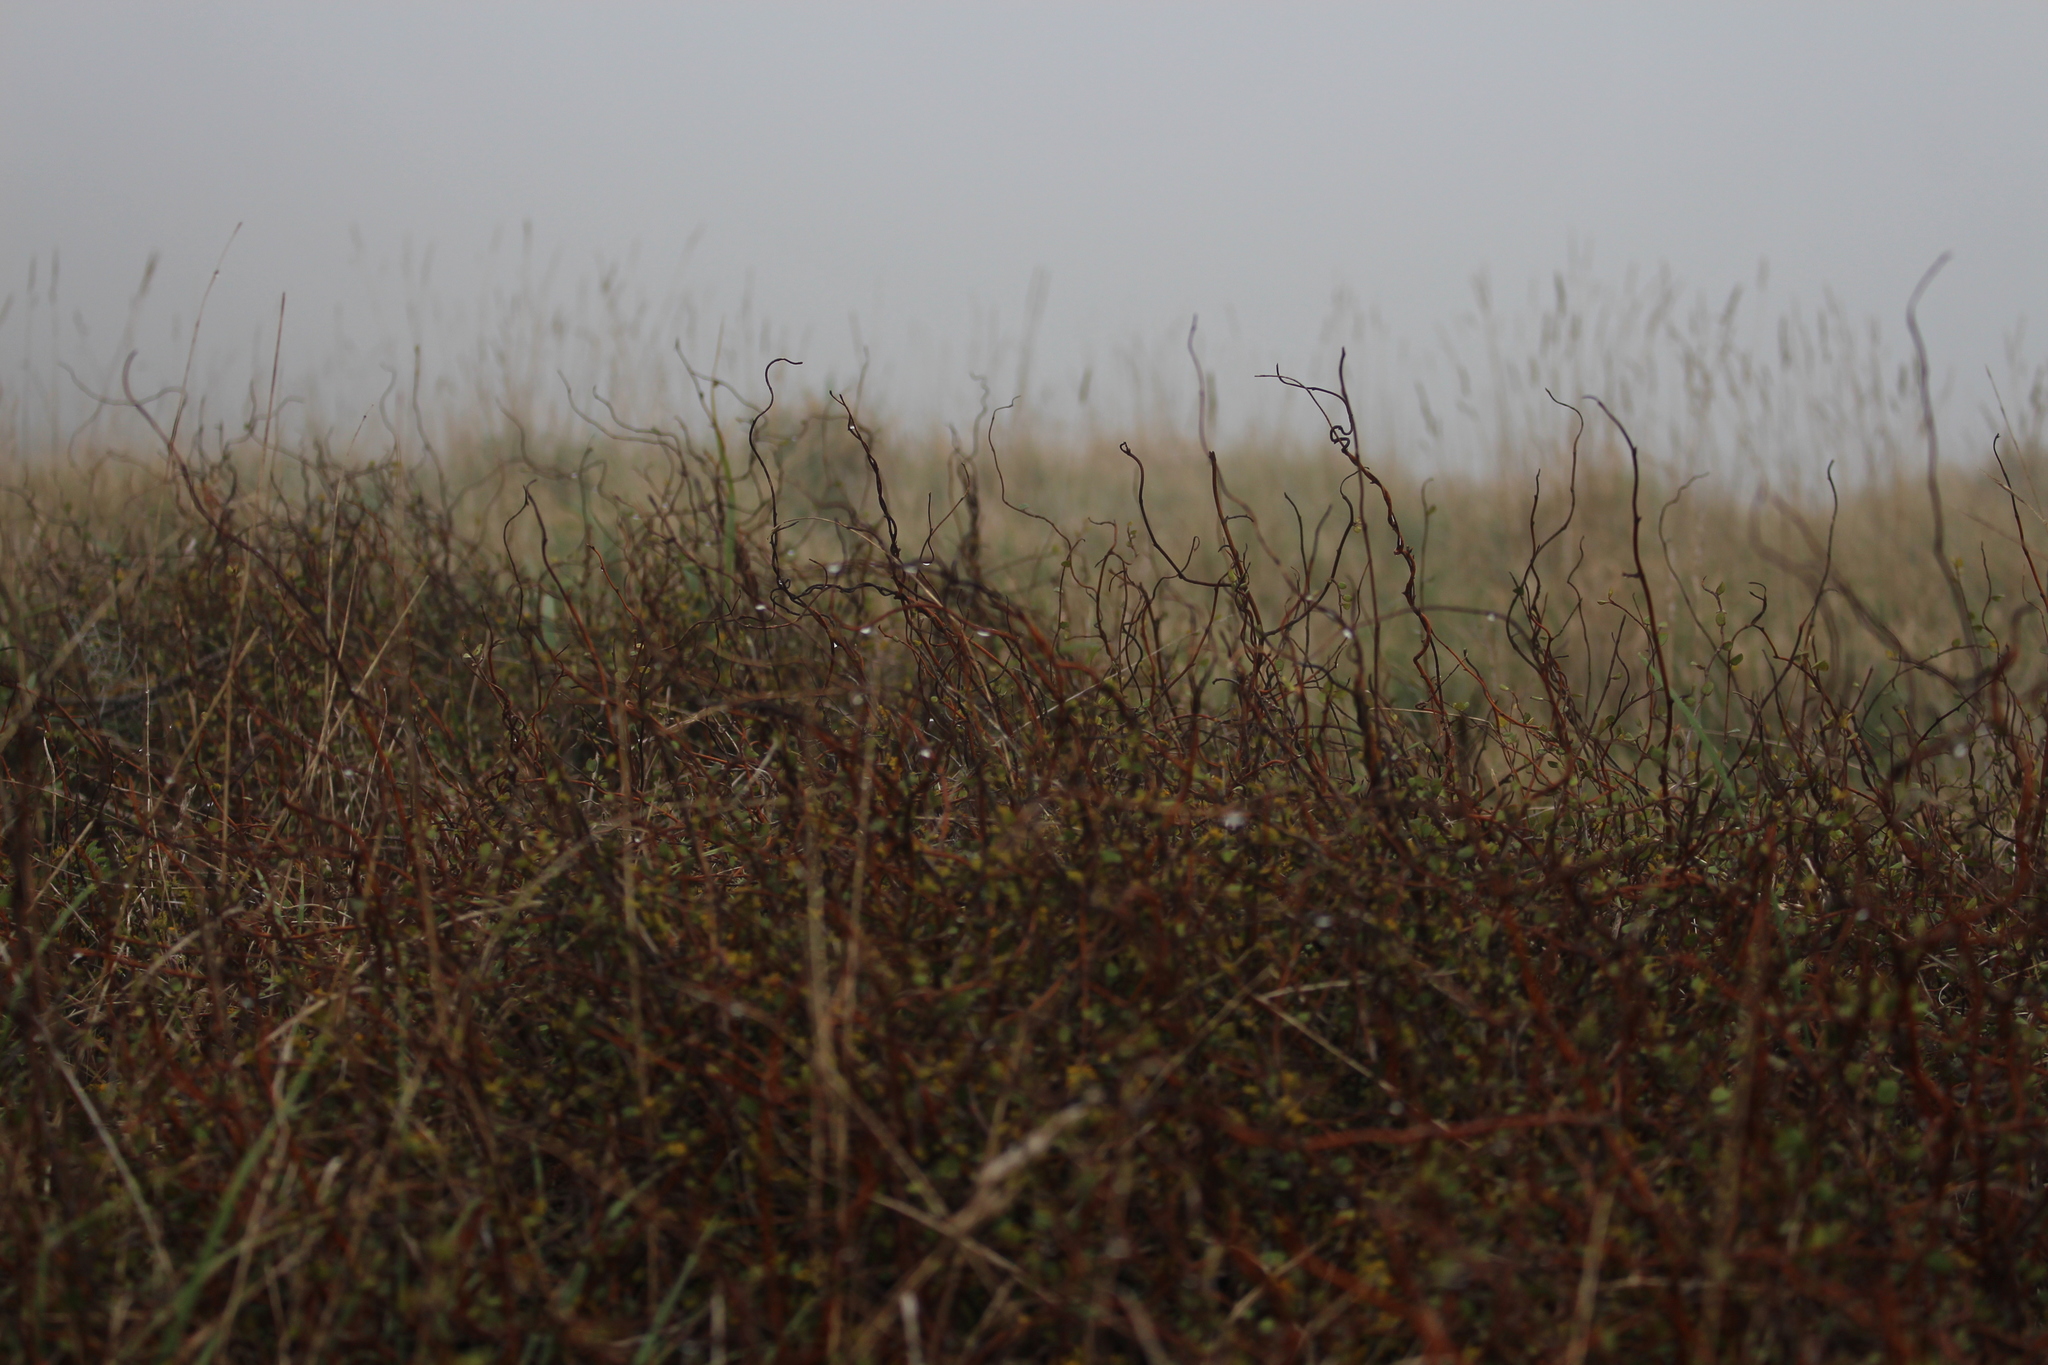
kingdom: Plantae
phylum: Tracheophyta
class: Magnoliopsida
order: Caryophyllales
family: Polygonaceae
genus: Muehlenbeckia
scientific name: Muehlenbeckia complexa
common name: Wireplant
